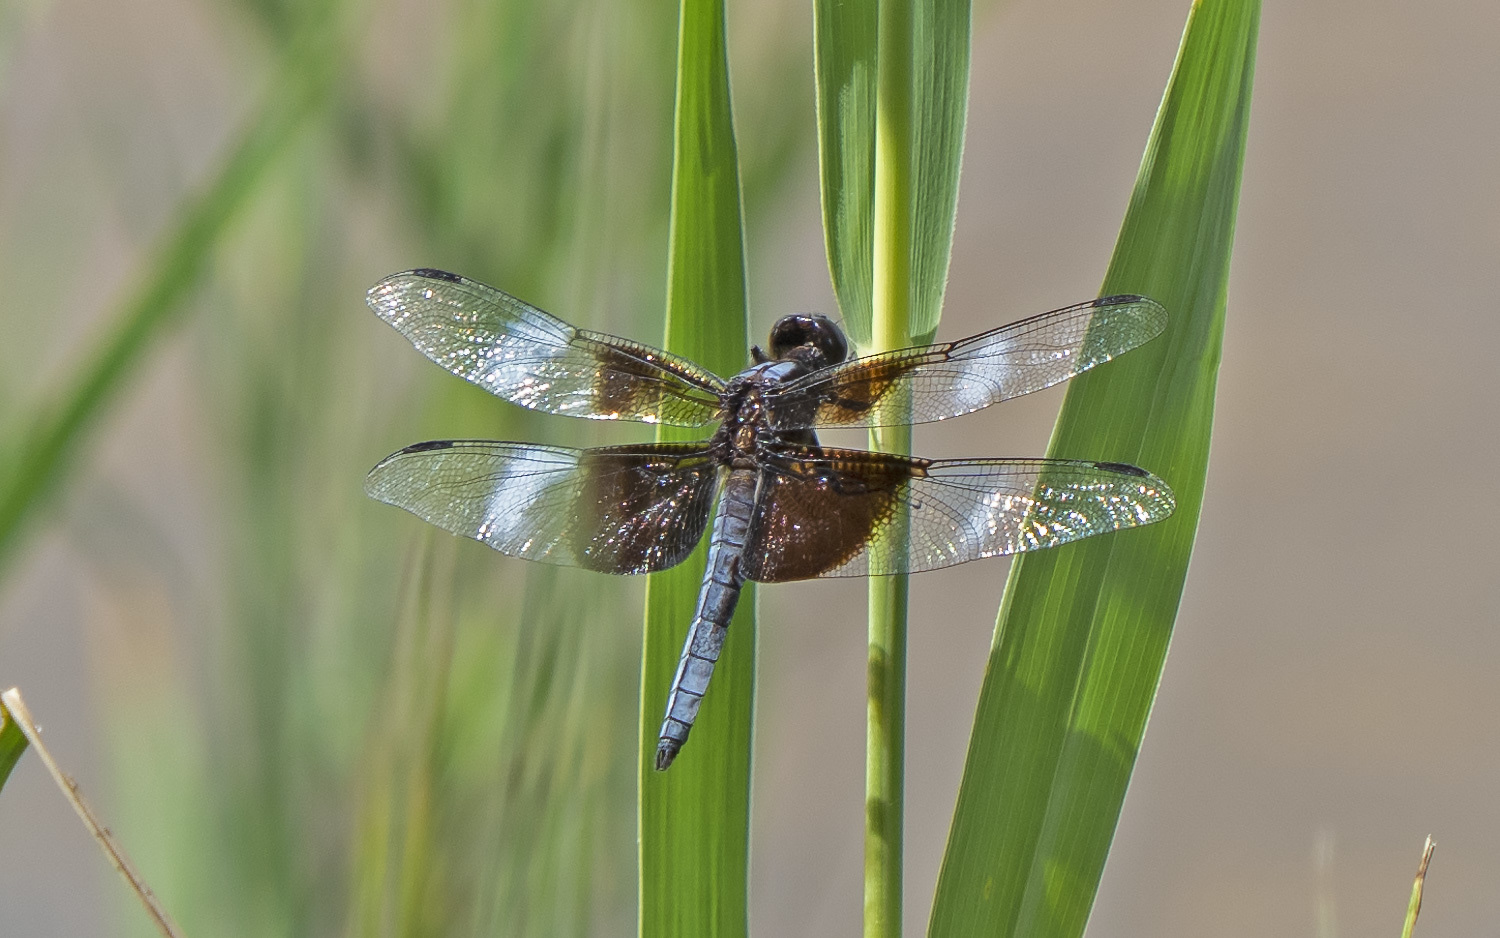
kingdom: Animalia
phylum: Arthropoda
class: Insecta
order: Odonata
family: Libellulidae
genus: Libellula
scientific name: Libellula luctuosa
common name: Widow skimmer
